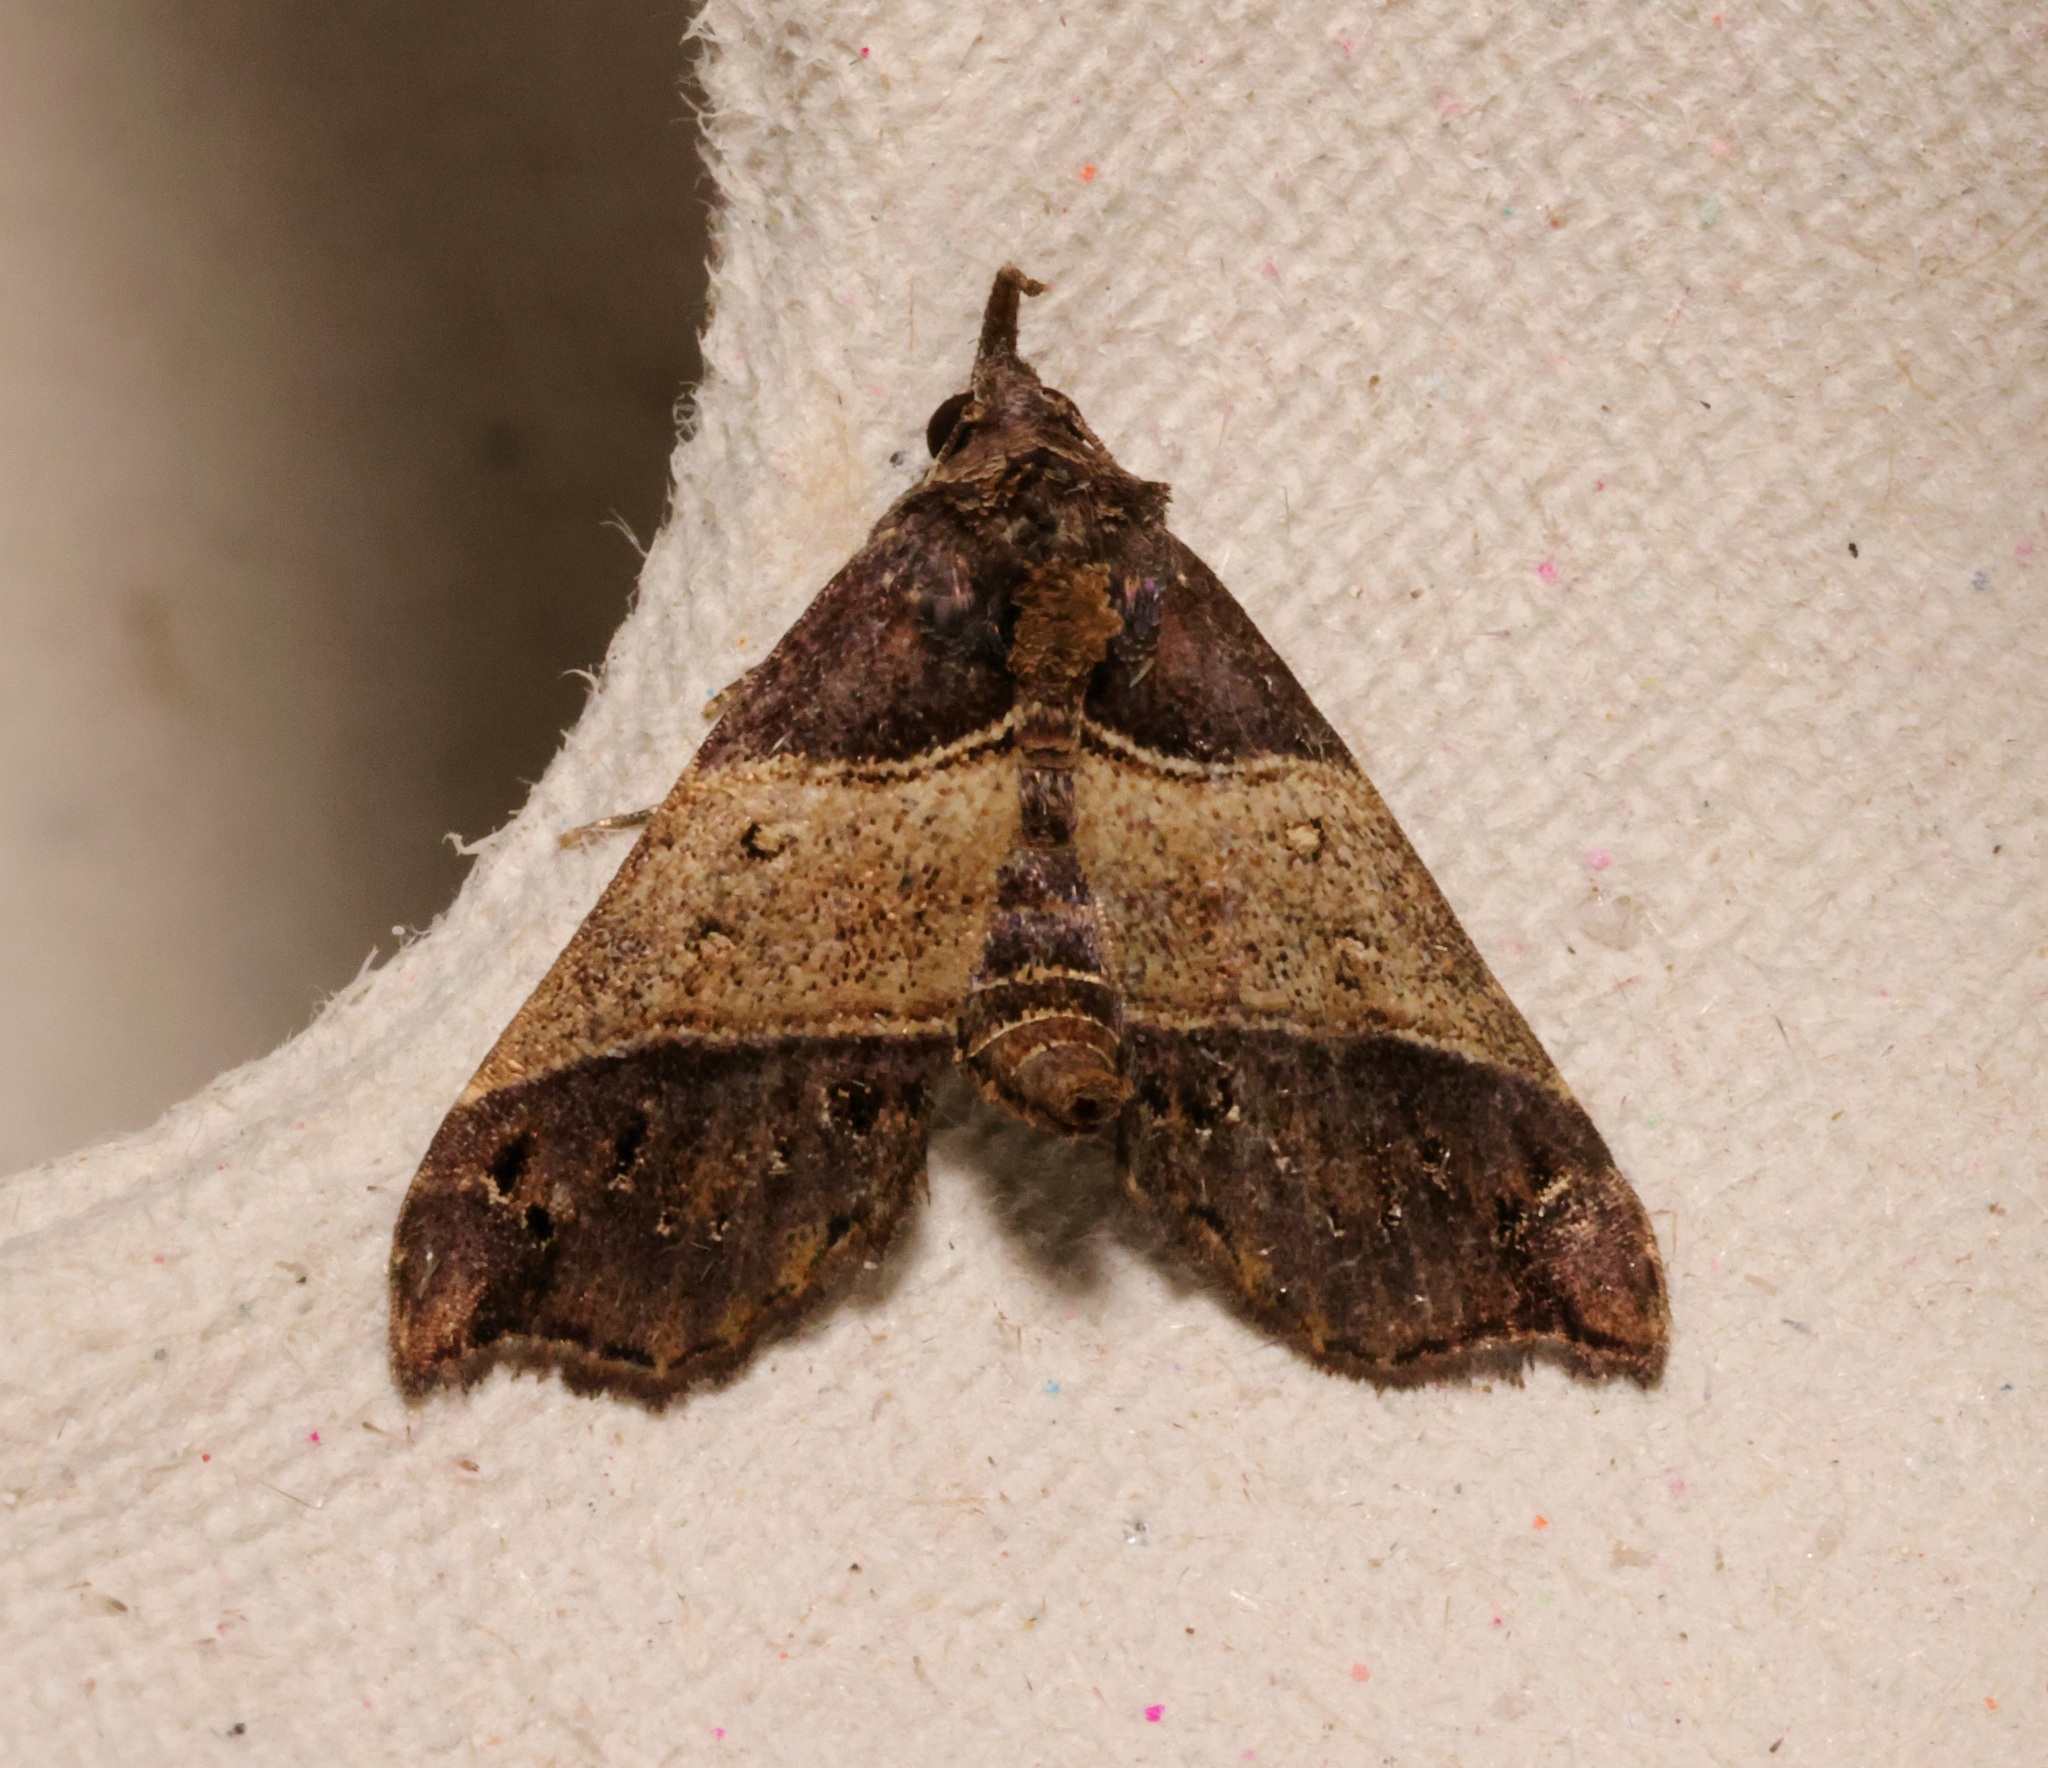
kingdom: Animalia
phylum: Arthropoda
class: Insecta
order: Lepidoptera
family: Erebidae
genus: Acidon
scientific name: Acidon evae
